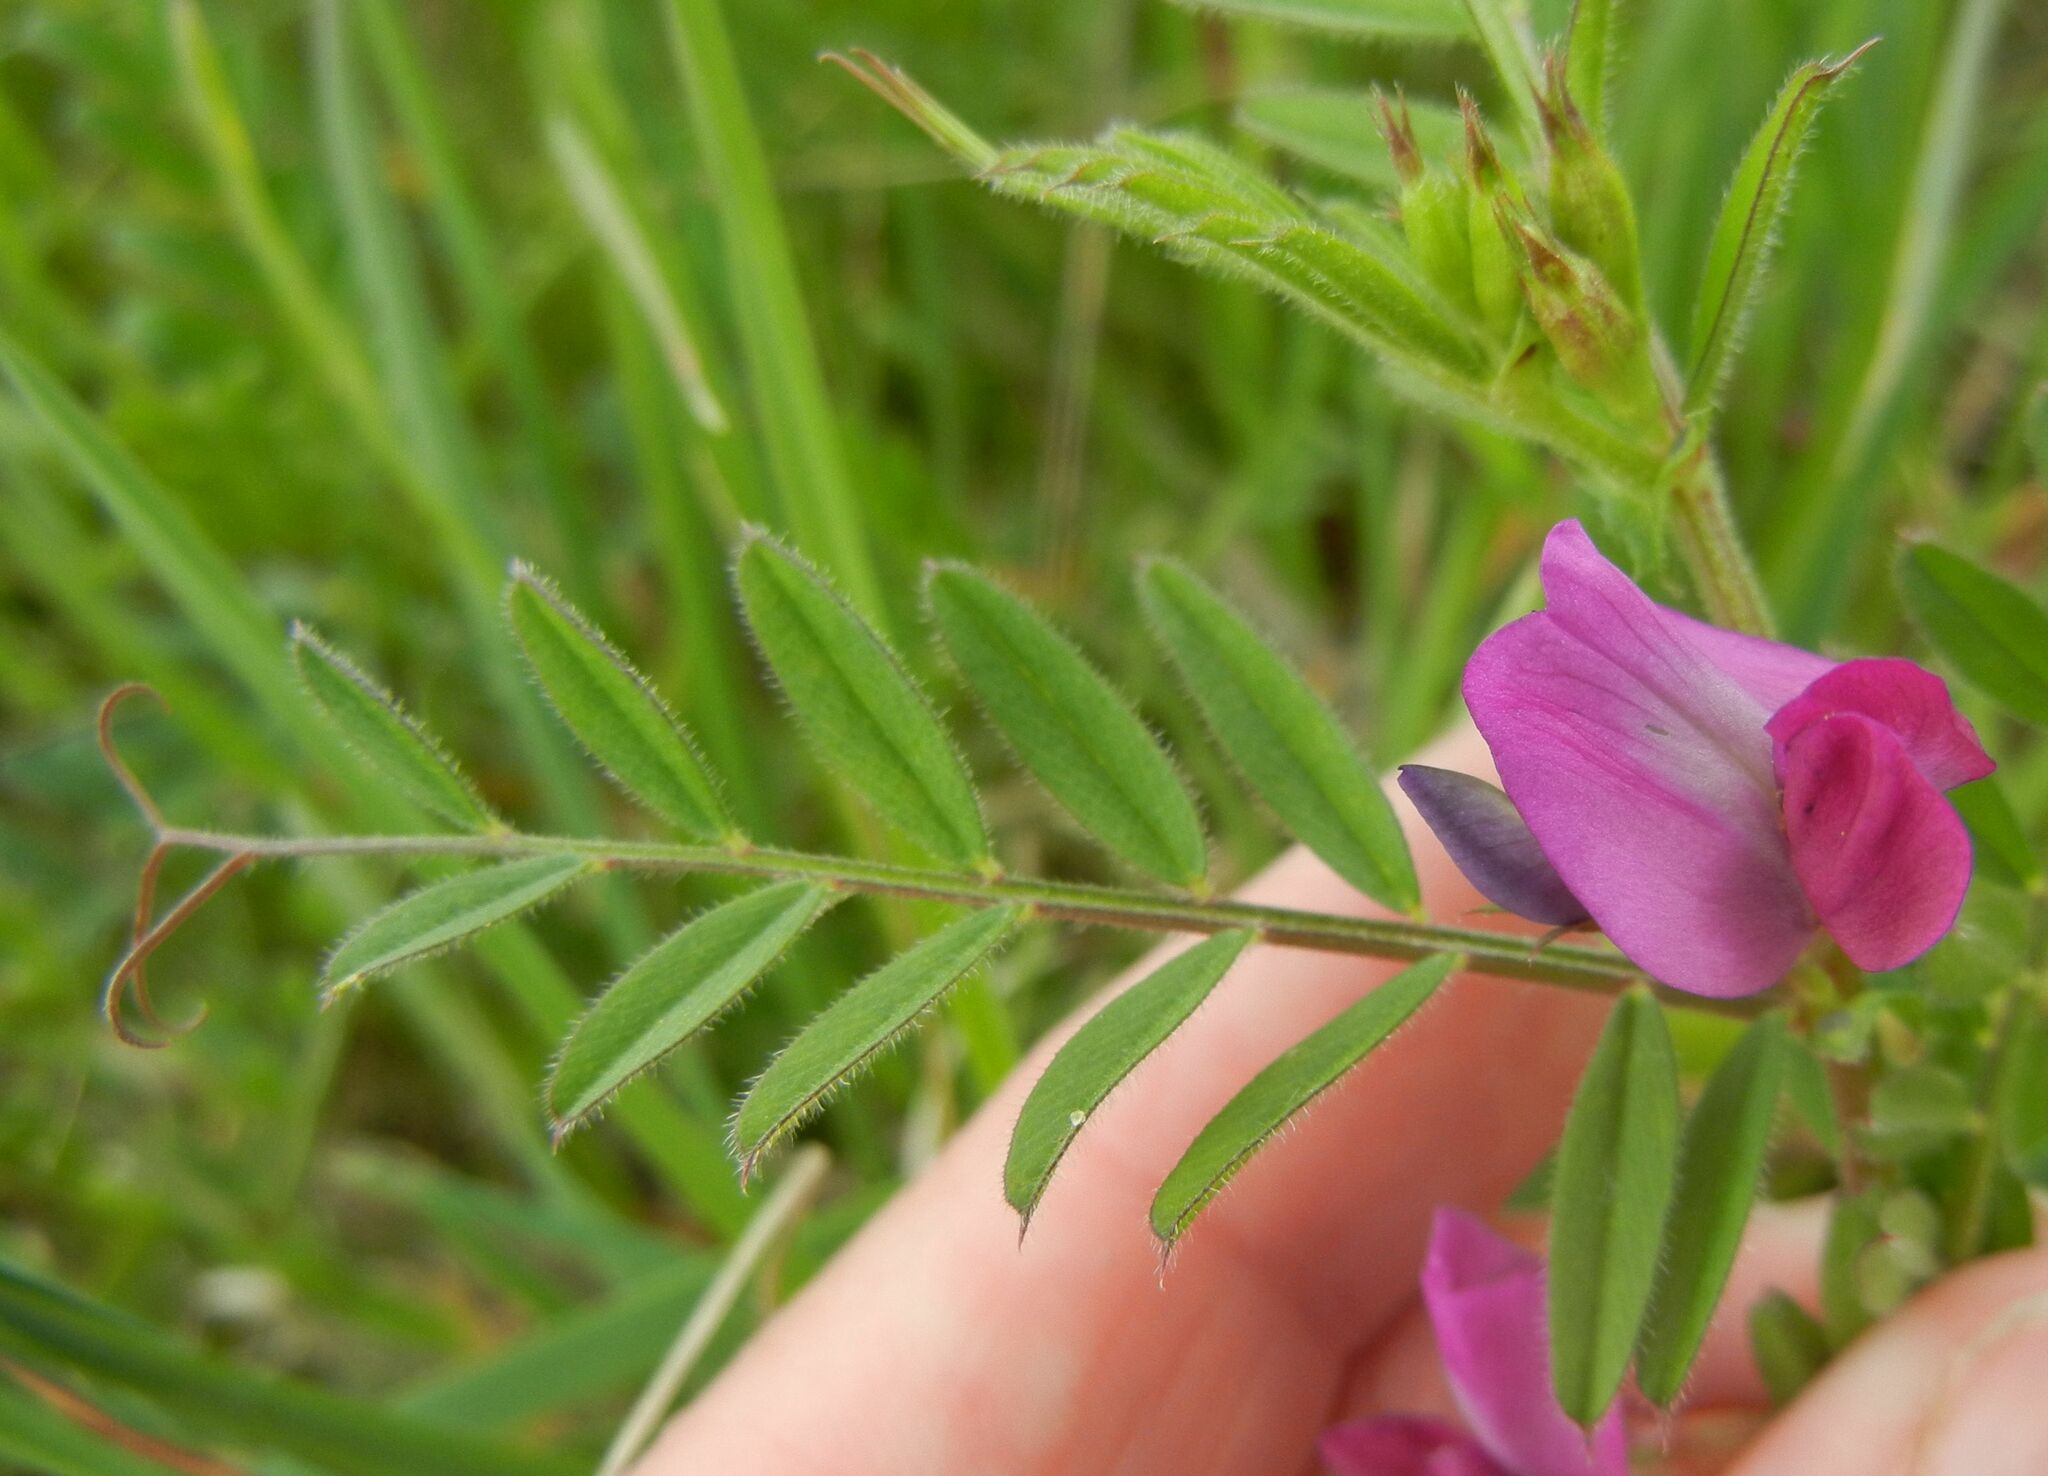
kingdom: Plantae
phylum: Tracheophyta
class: Magnoliopsida
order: Fabales
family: Fabaceae
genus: Vicia
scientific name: Vicia sativa
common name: Garden vetch
